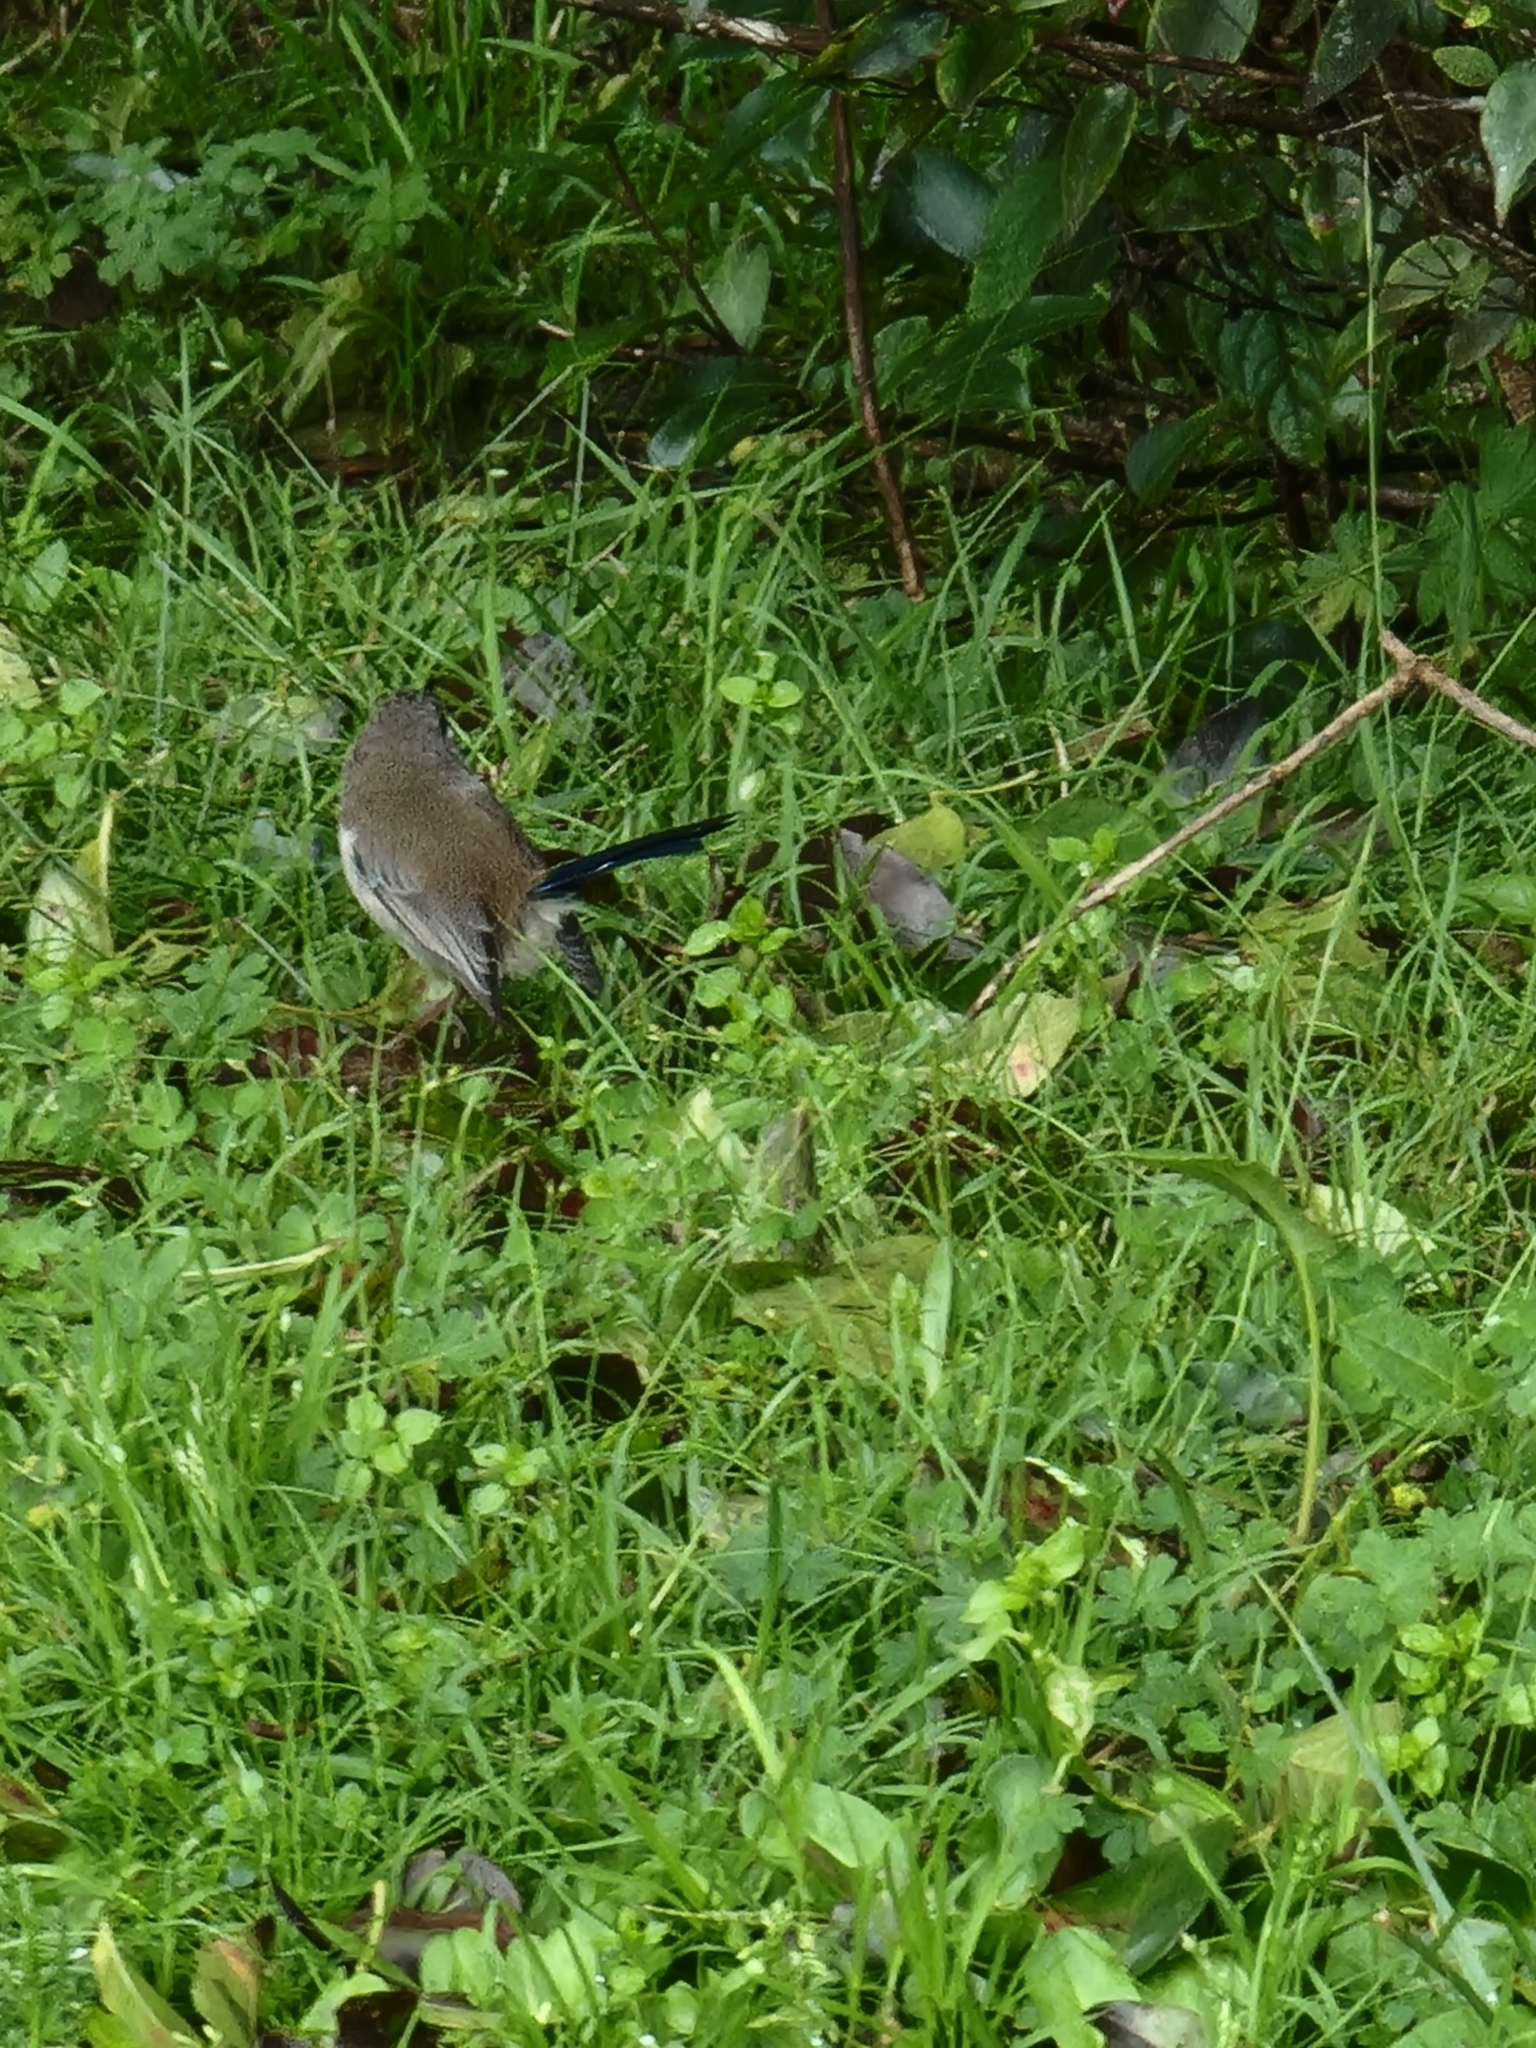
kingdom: Animalia
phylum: Chordata
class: Aves
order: Passeriformes
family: Maluridae
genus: Malurus
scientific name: Malurus cyaneus
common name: Superb fairywren
